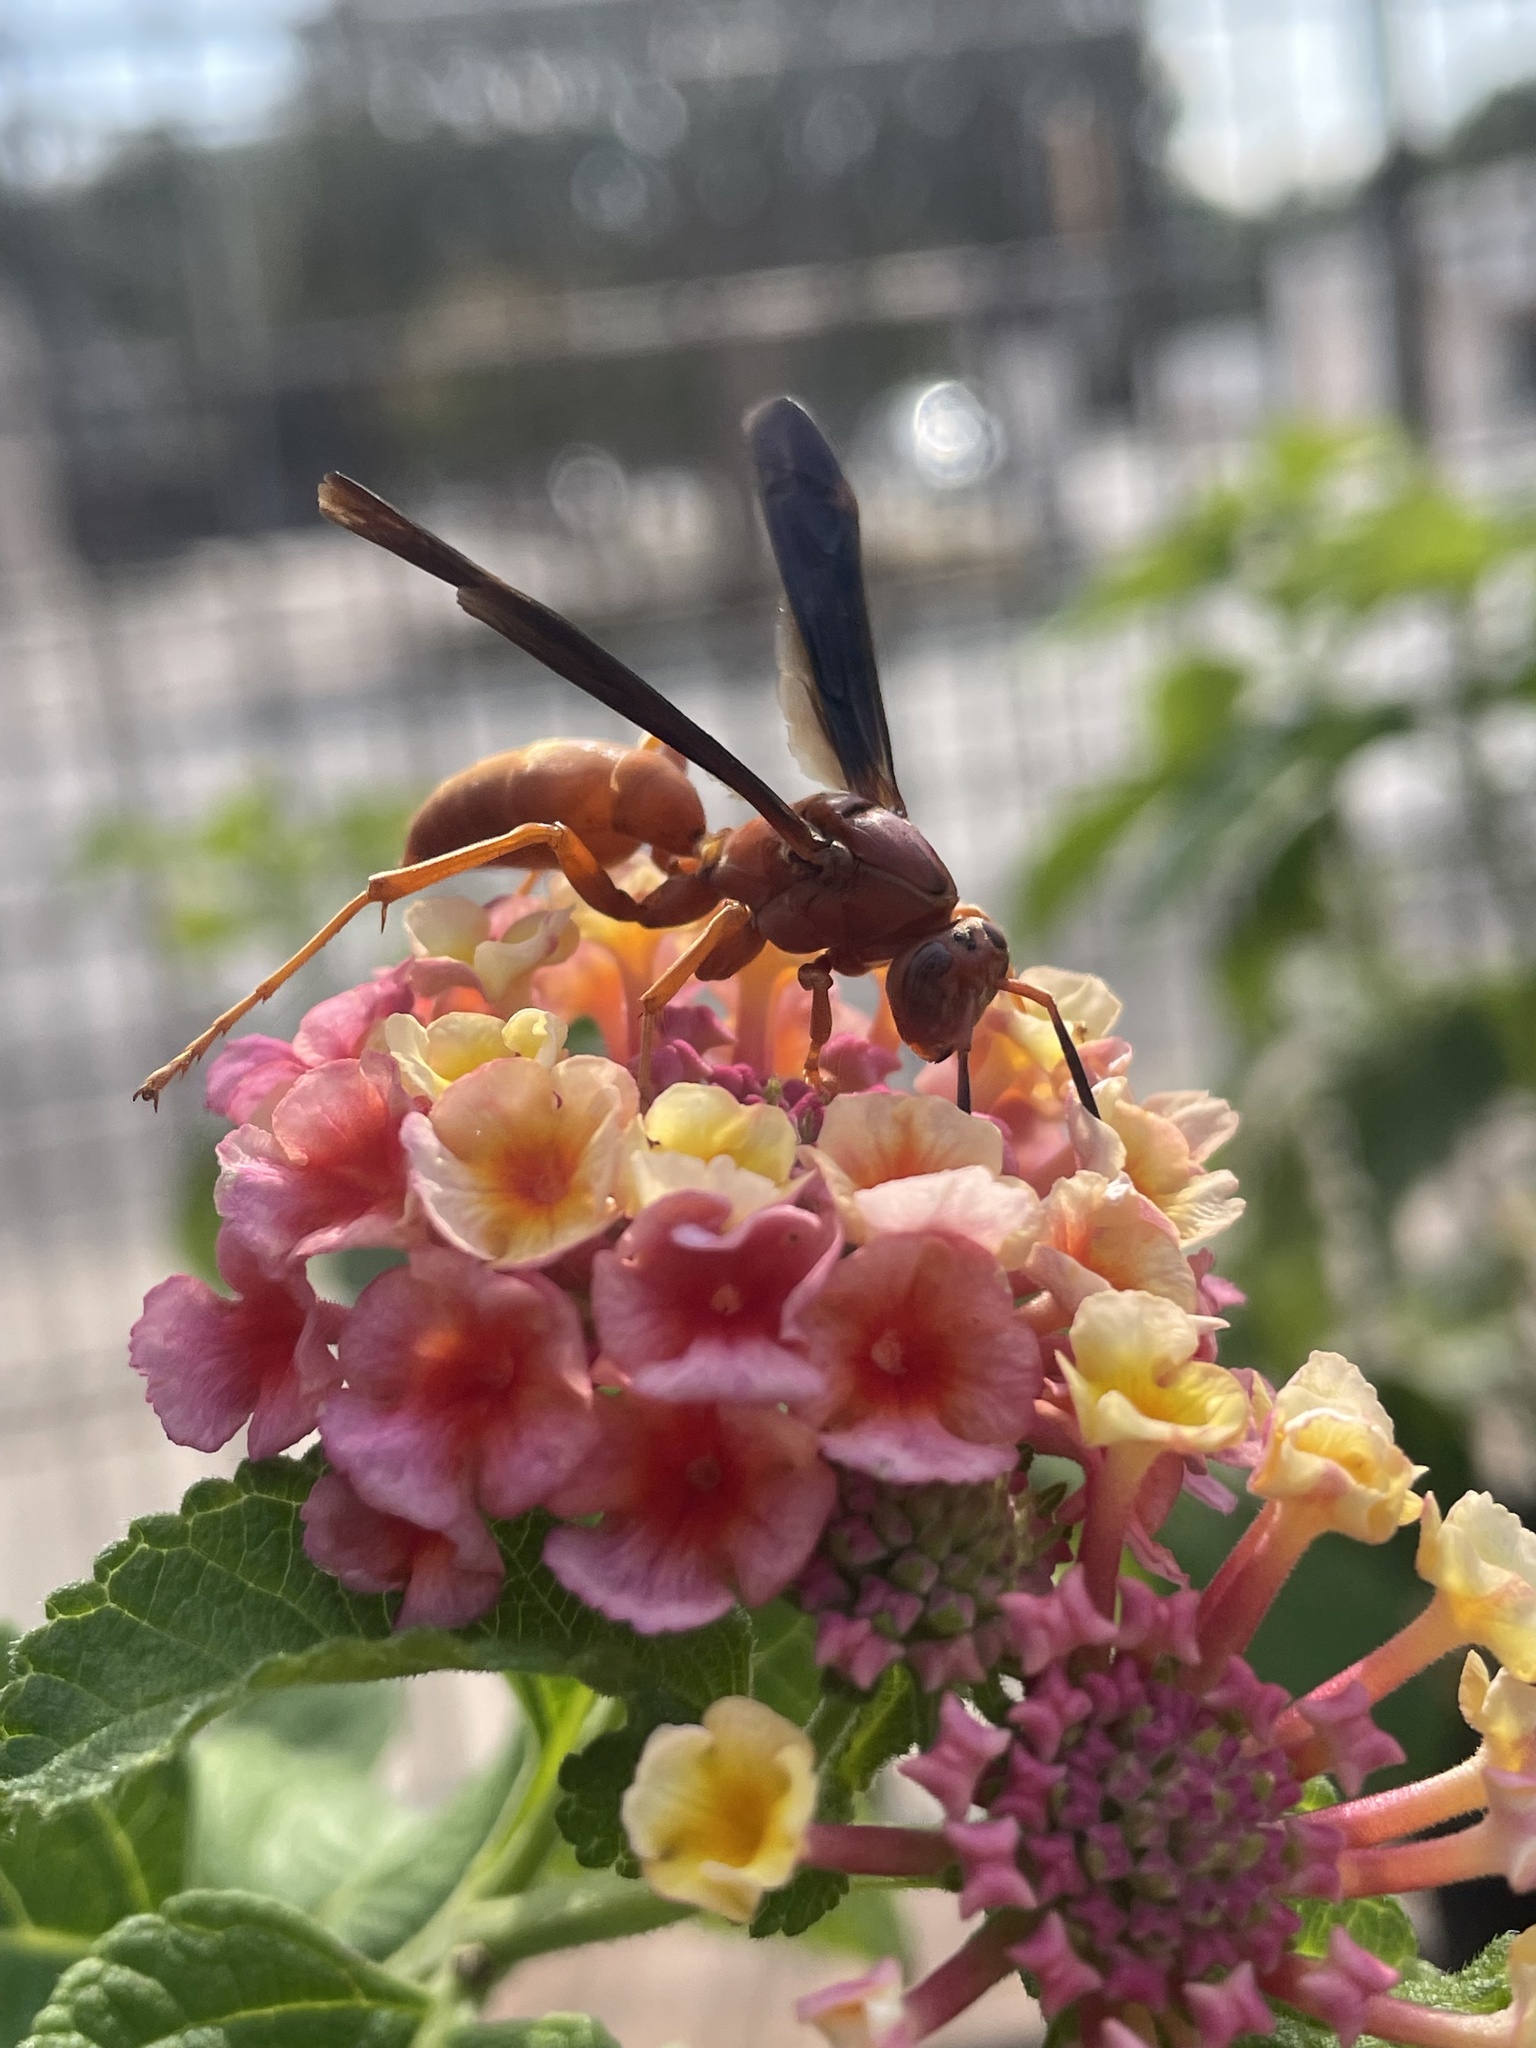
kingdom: Animalia
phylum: Arthropoda
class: Insecta
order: Hymenoptera
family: Eumenidae
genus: Polistes
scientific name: Polistes carolina
